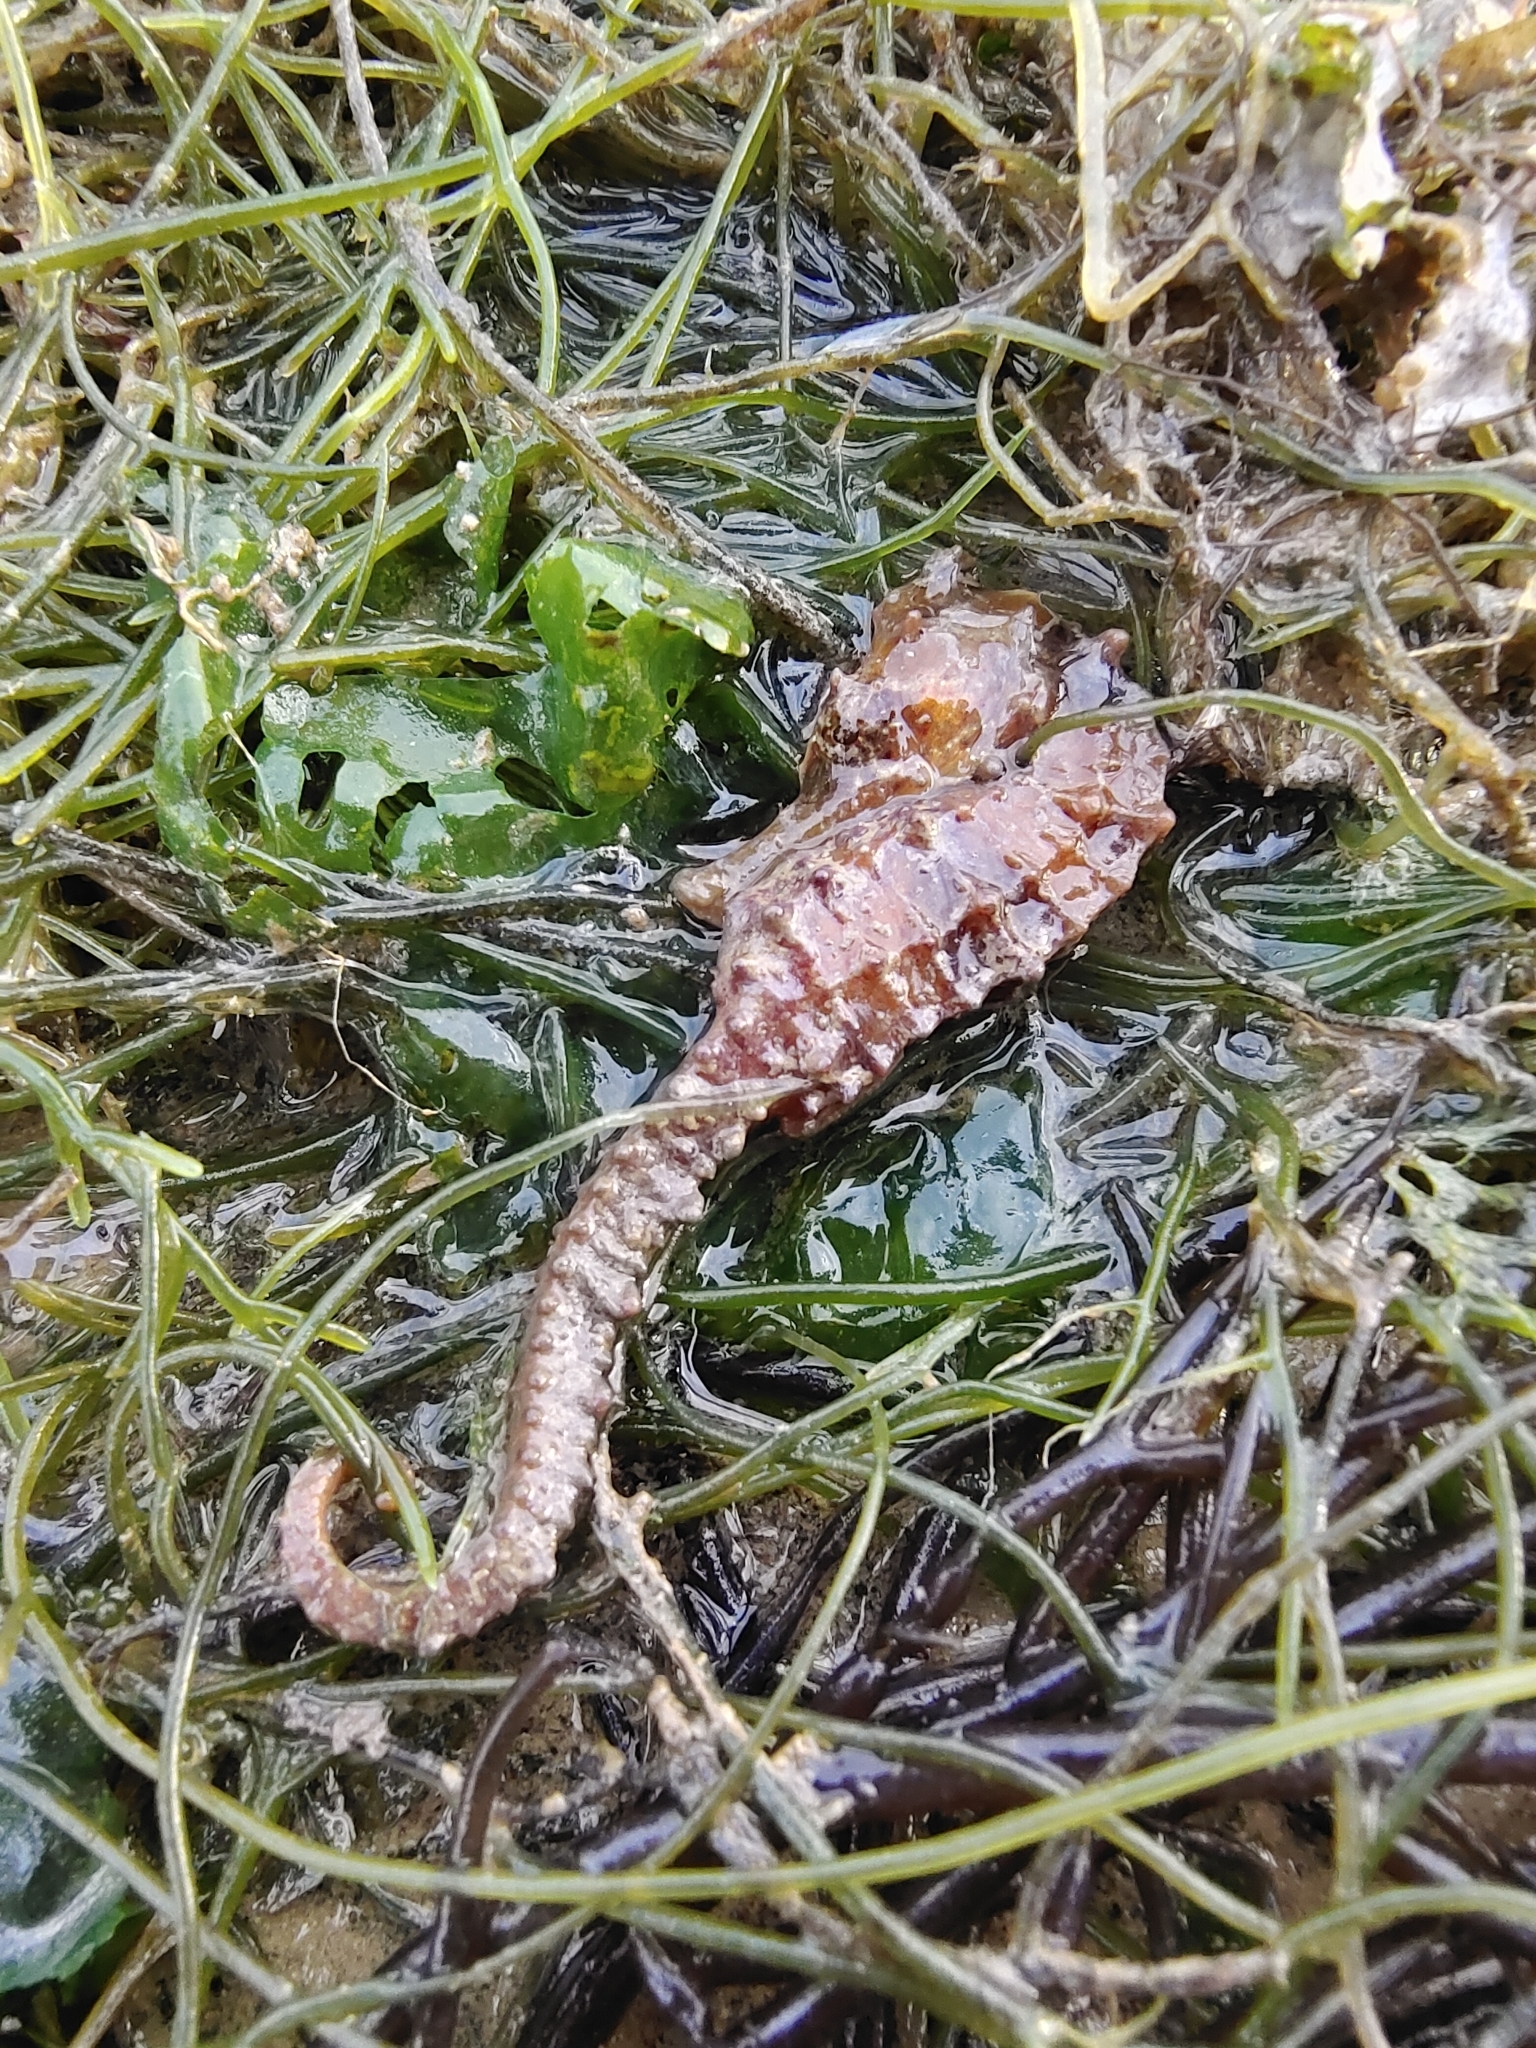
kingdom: Animalia
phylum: Chordata
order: Syngnathiformes
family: Syngnathidae
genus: Hippocampus
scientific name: Hippocampus kuda
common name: Spotted seahorse
